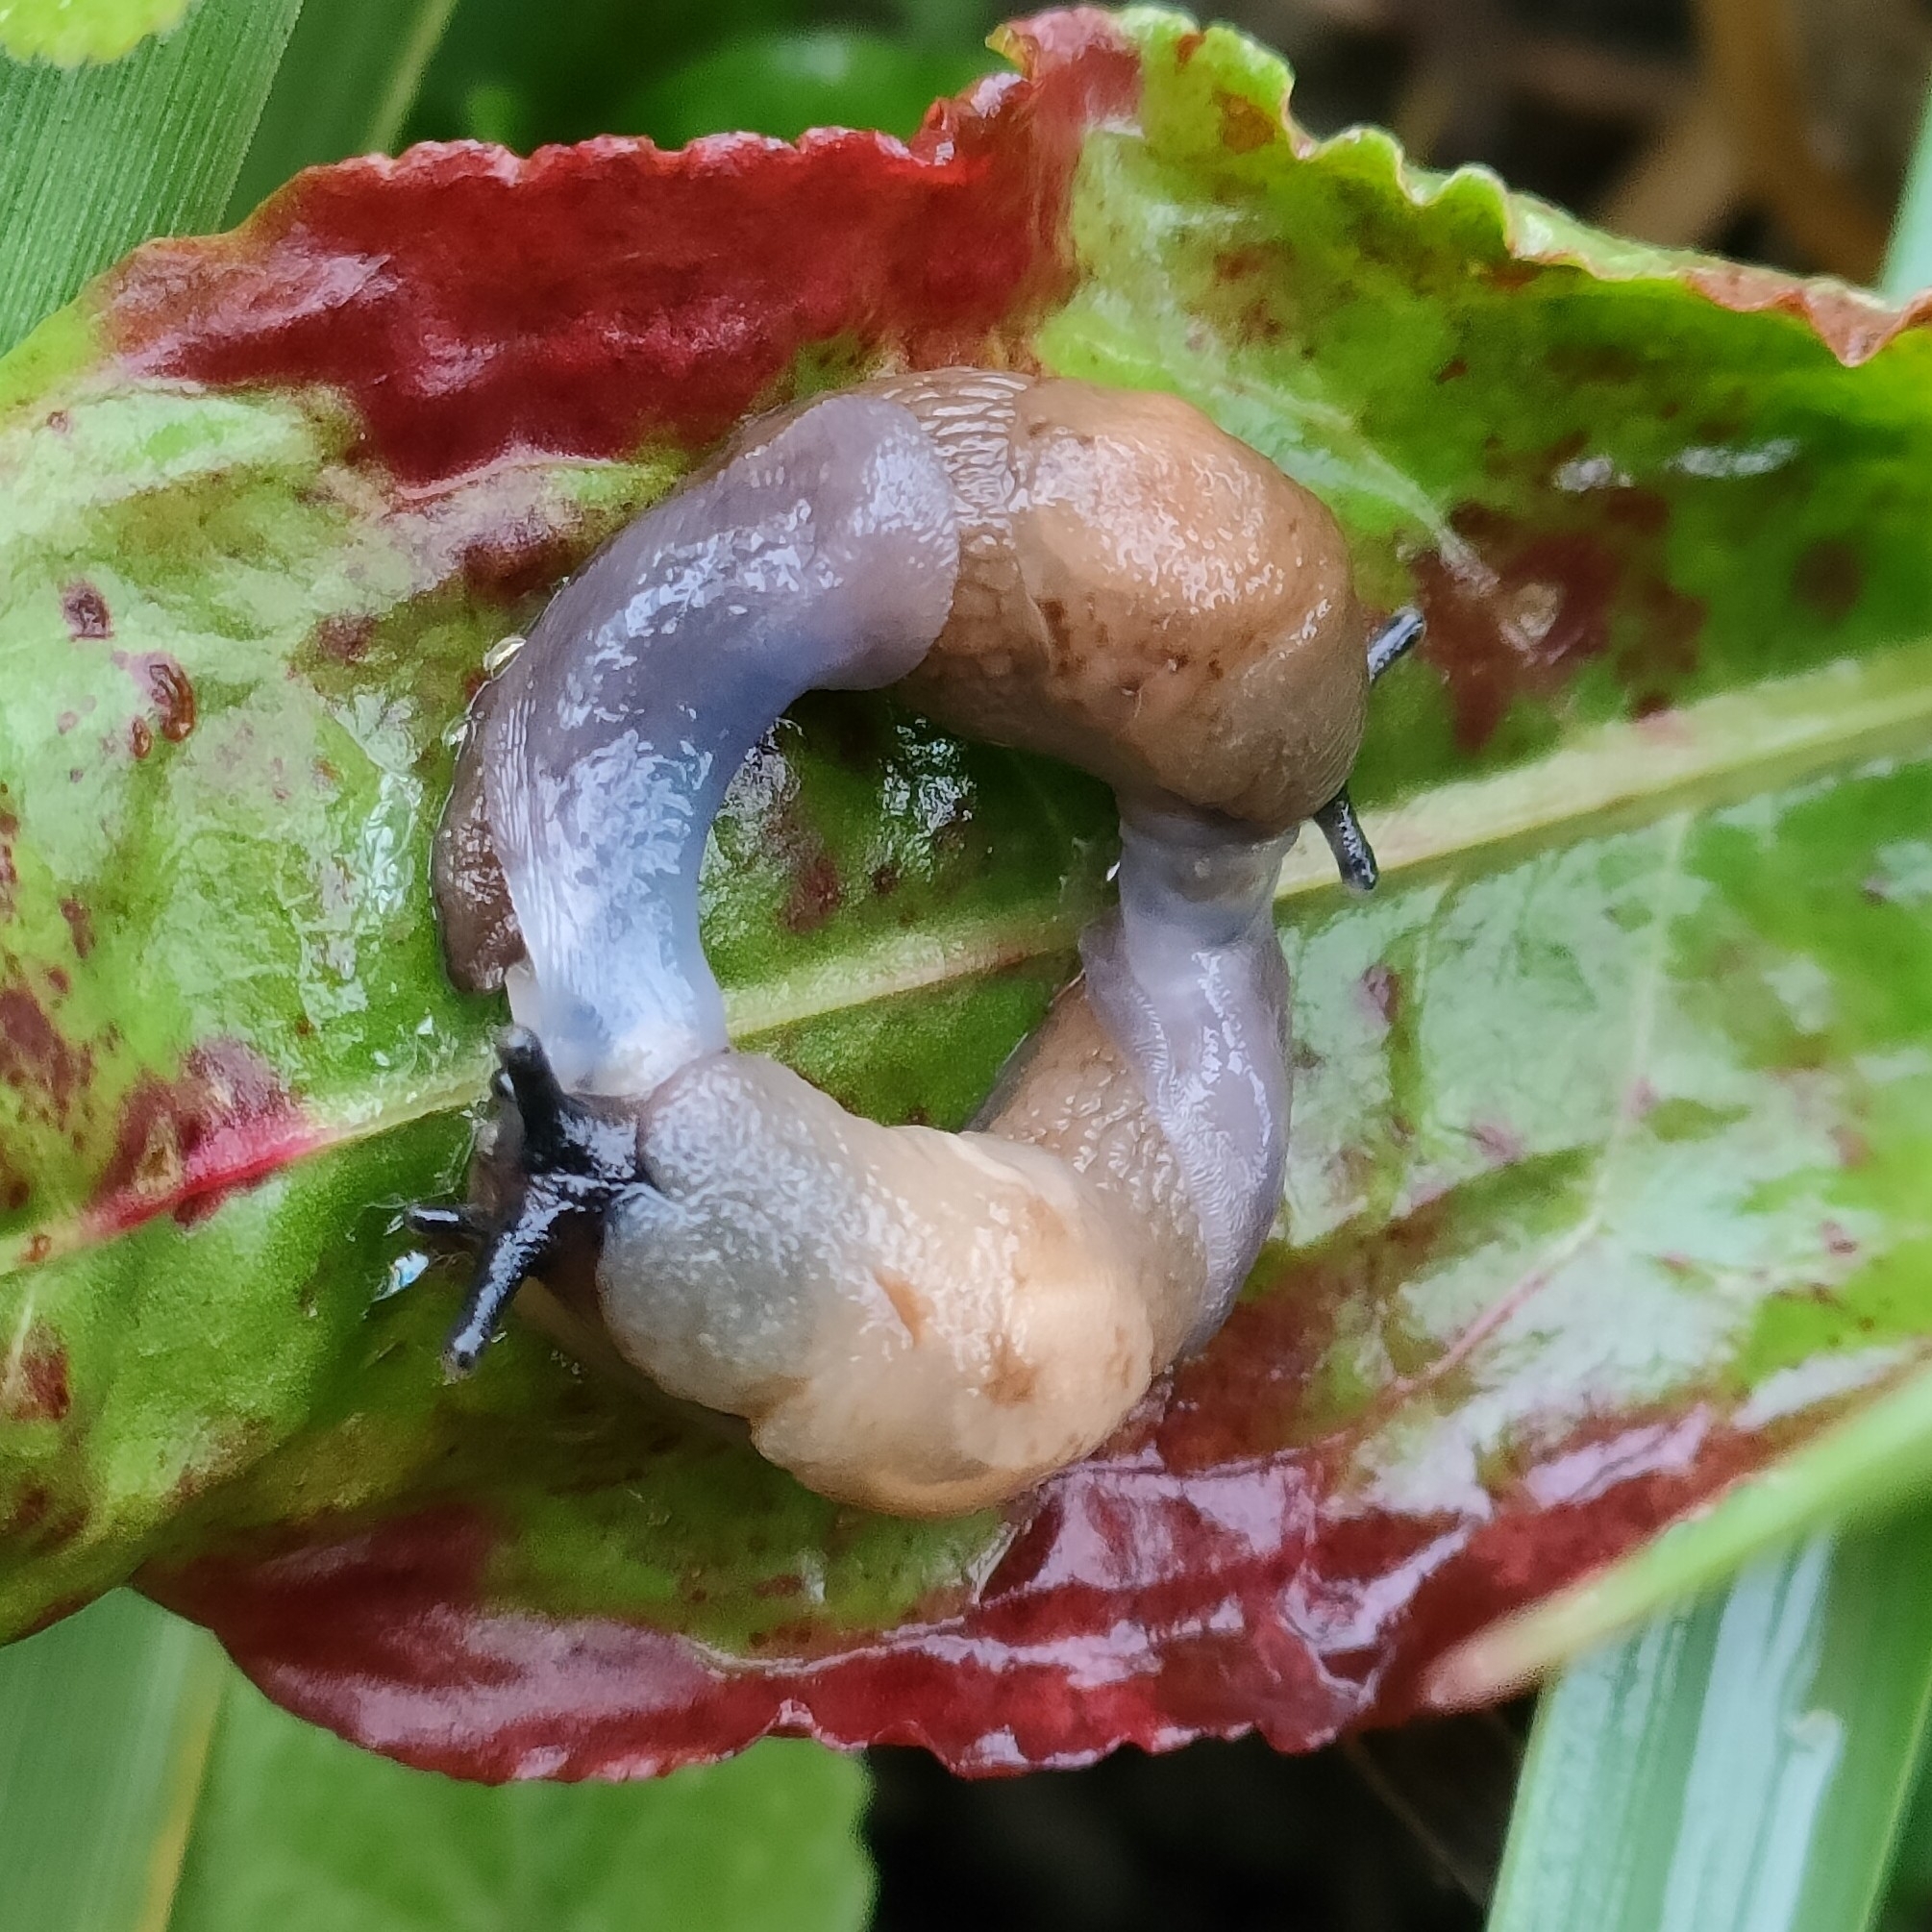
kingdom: Animalia
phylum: Mollusca
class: Gastropoda
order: Stylommatophora
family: Agriolimacidae
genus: Krynickillus
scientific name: Krynickillus melanocephalus
